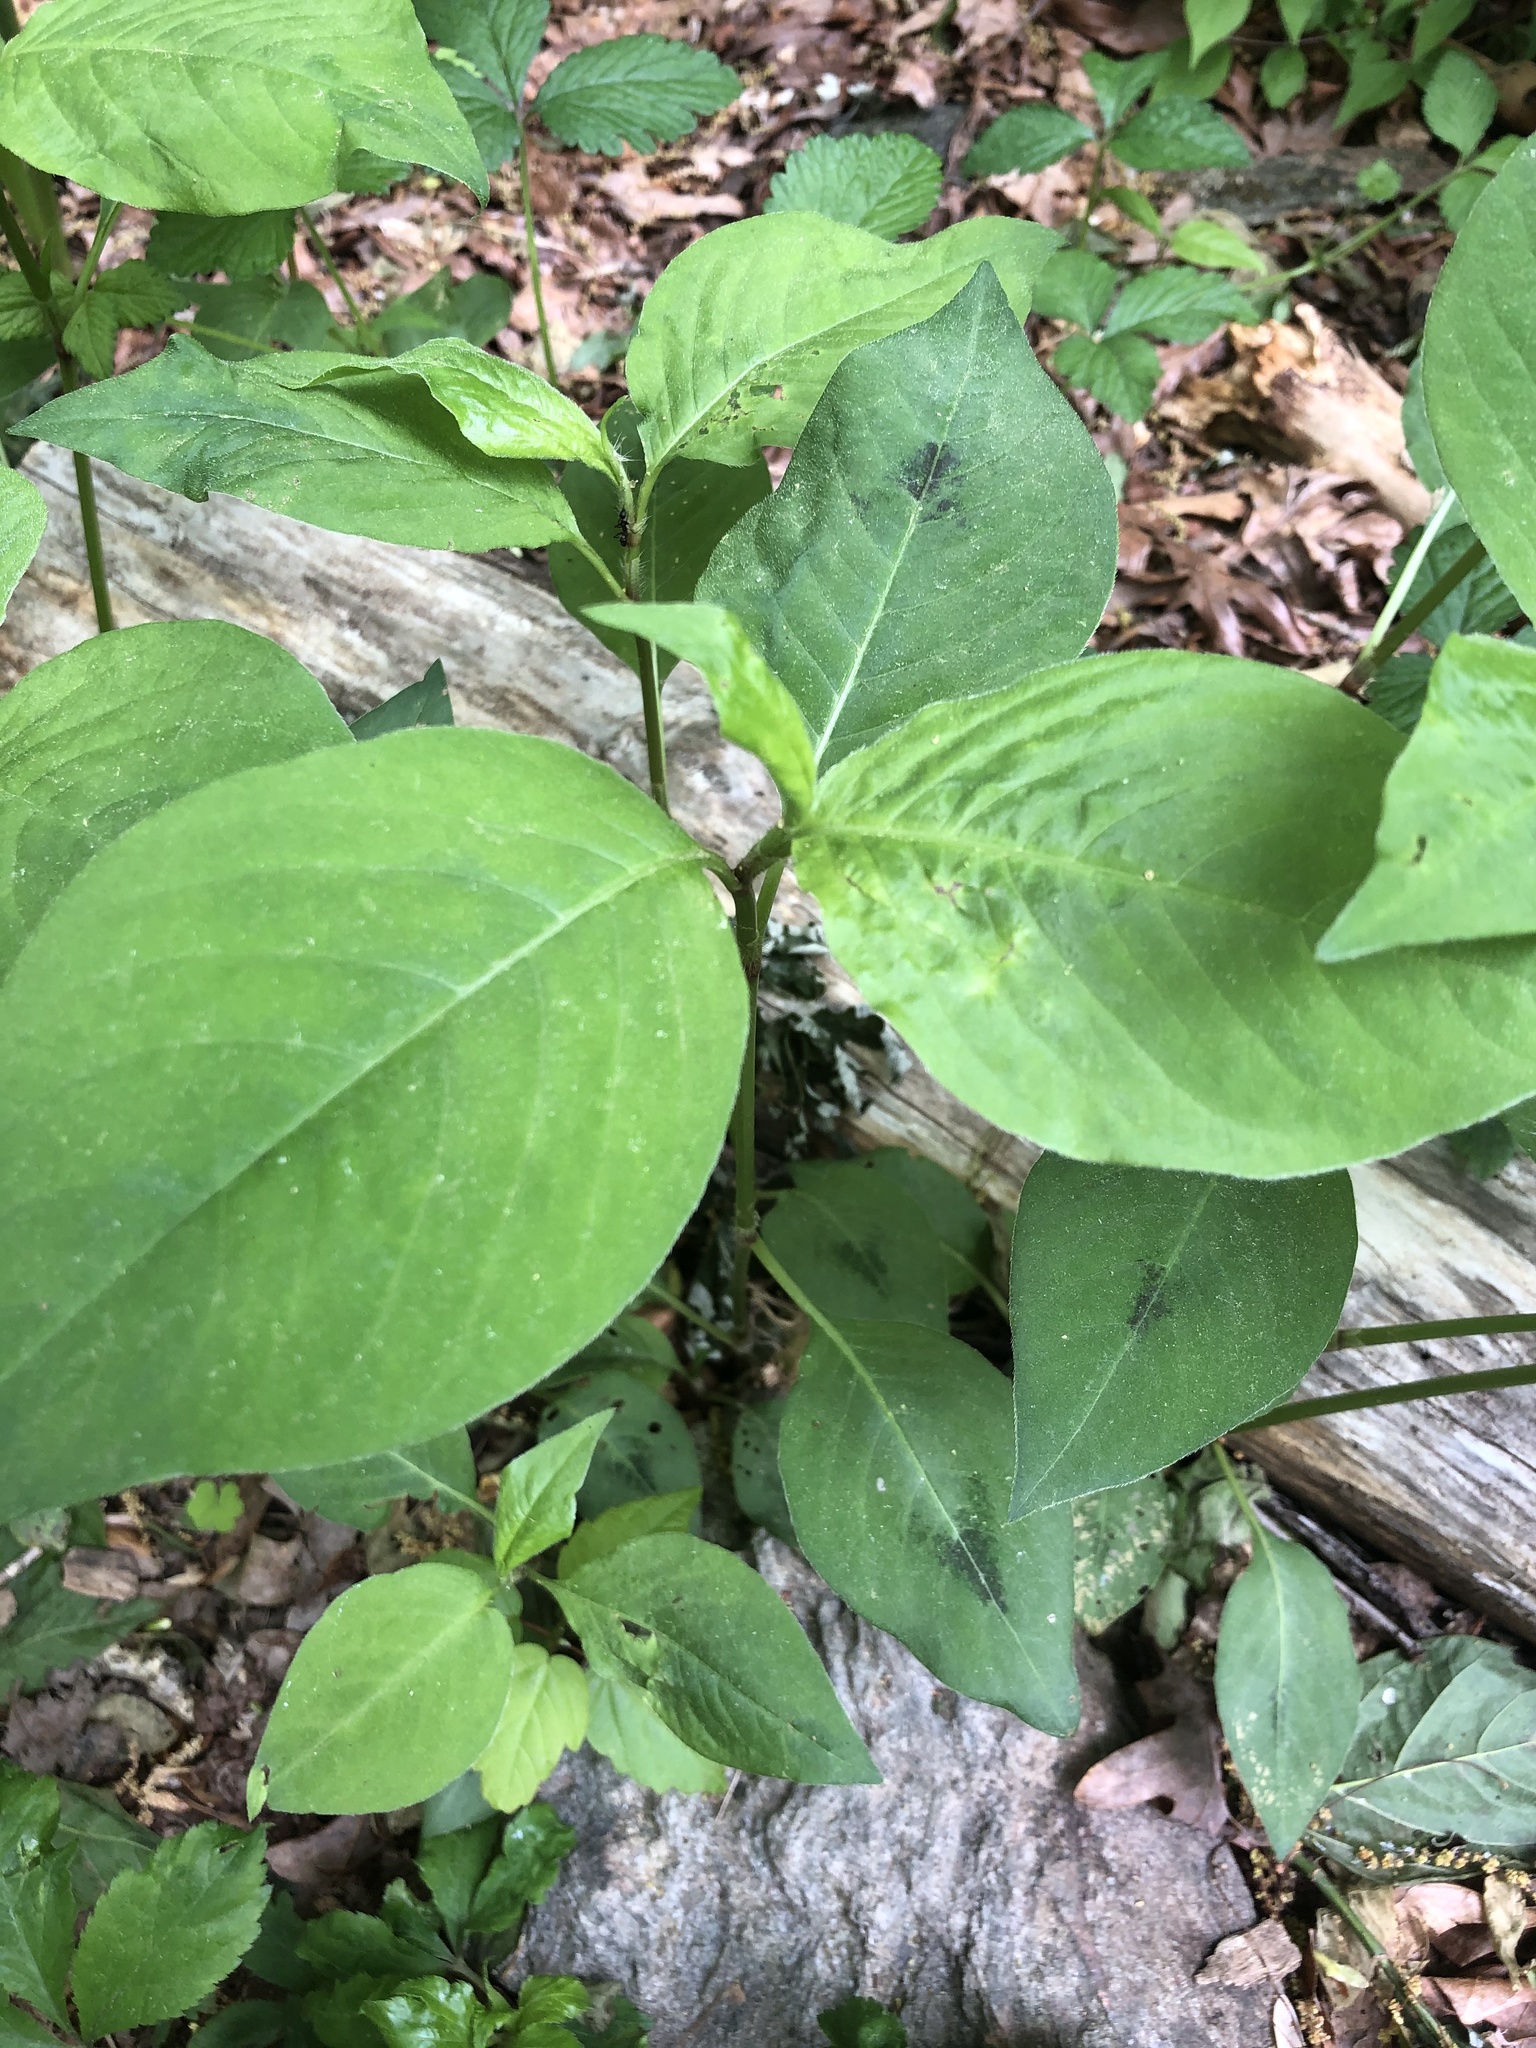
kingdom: Plantae
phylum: Tracheophyta
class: Magnoliopsida
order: Caryophyllales
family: Polygonaceae
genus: Persicaria
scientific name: Persicaria virginiana
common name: Jumpseed
